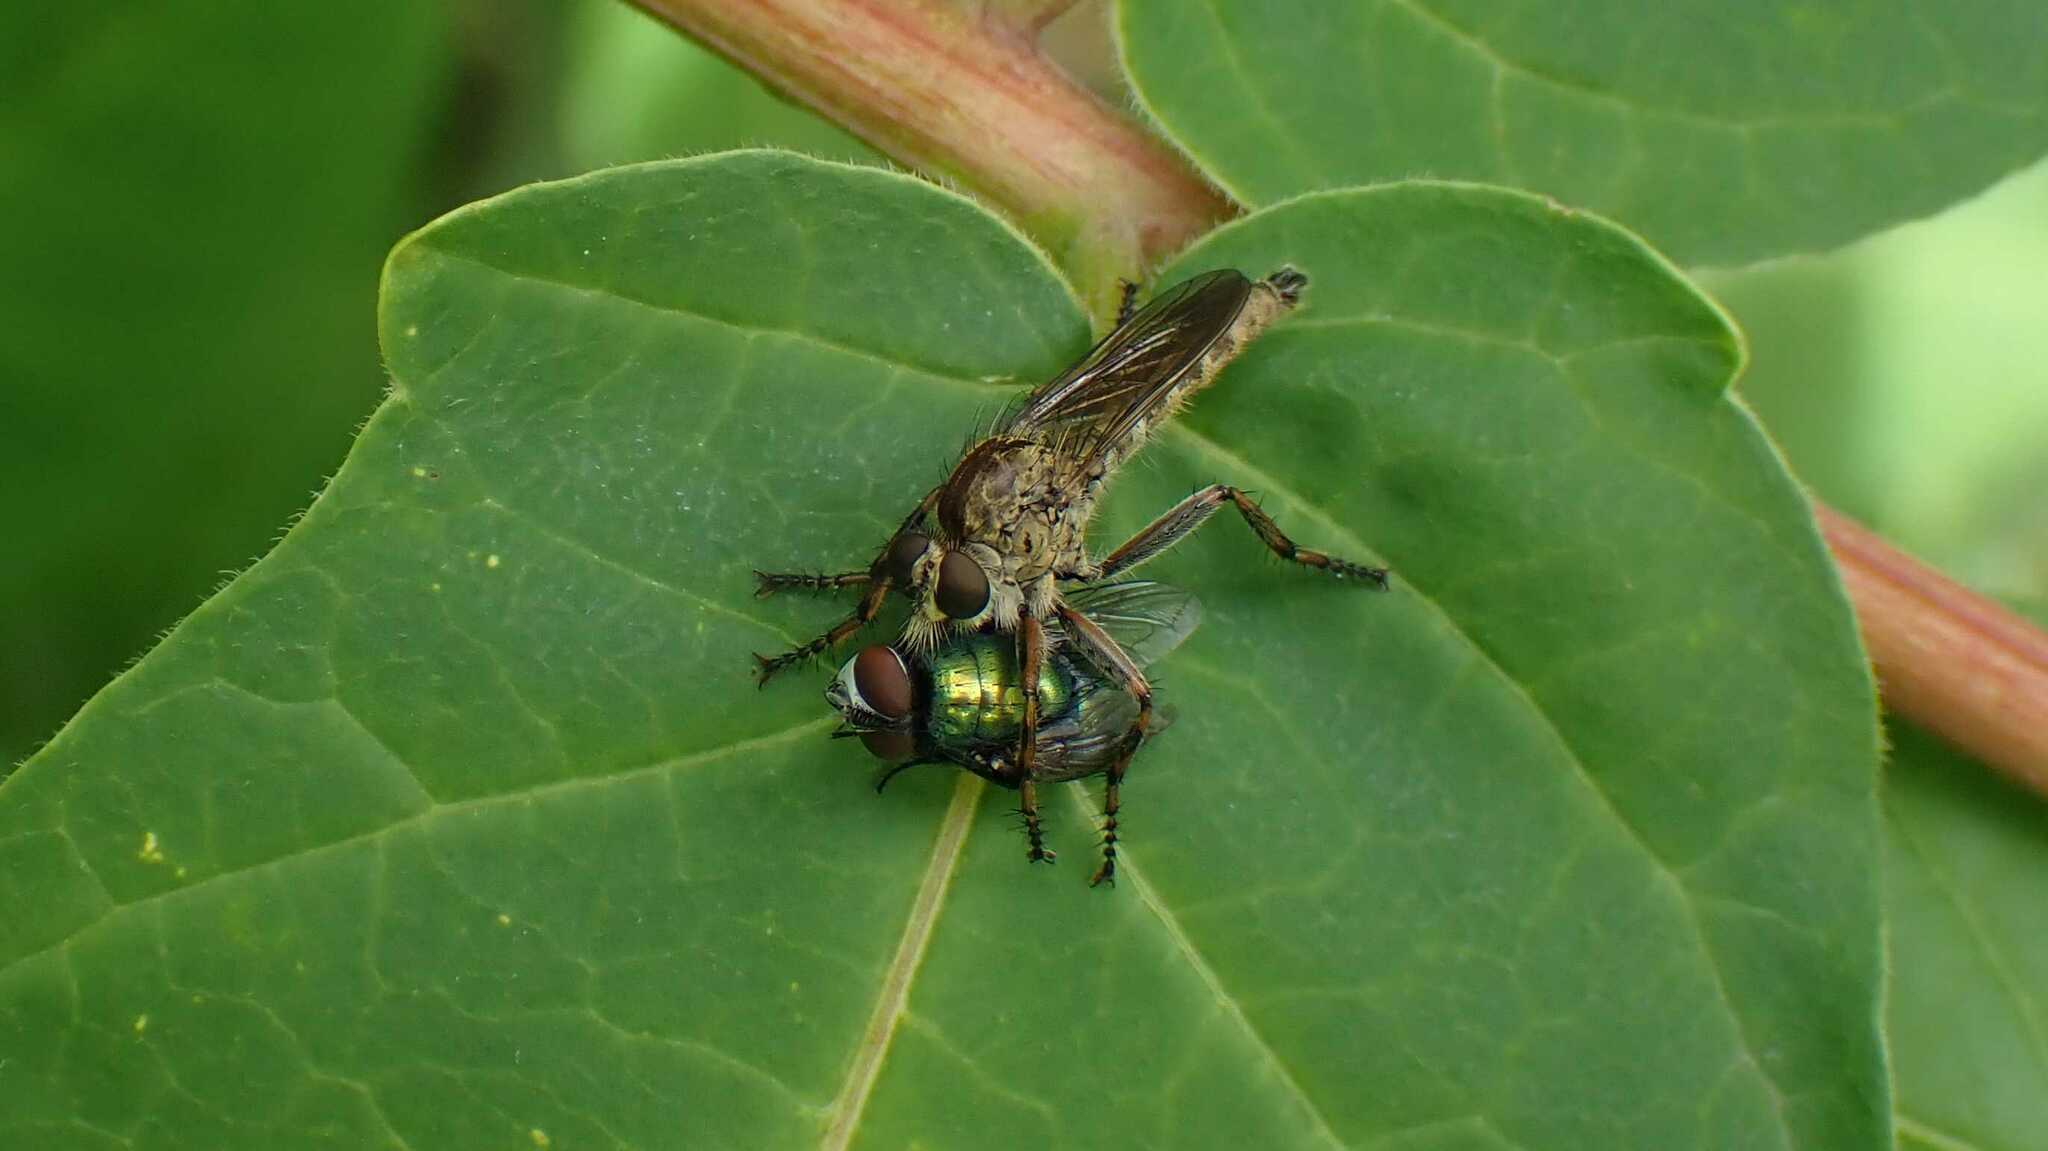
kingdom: Animalia
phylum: Arthropoda
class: Insecta
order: Diptera
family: Asilidae
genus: Epitriptus
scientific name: Epitriptus cingulatus
